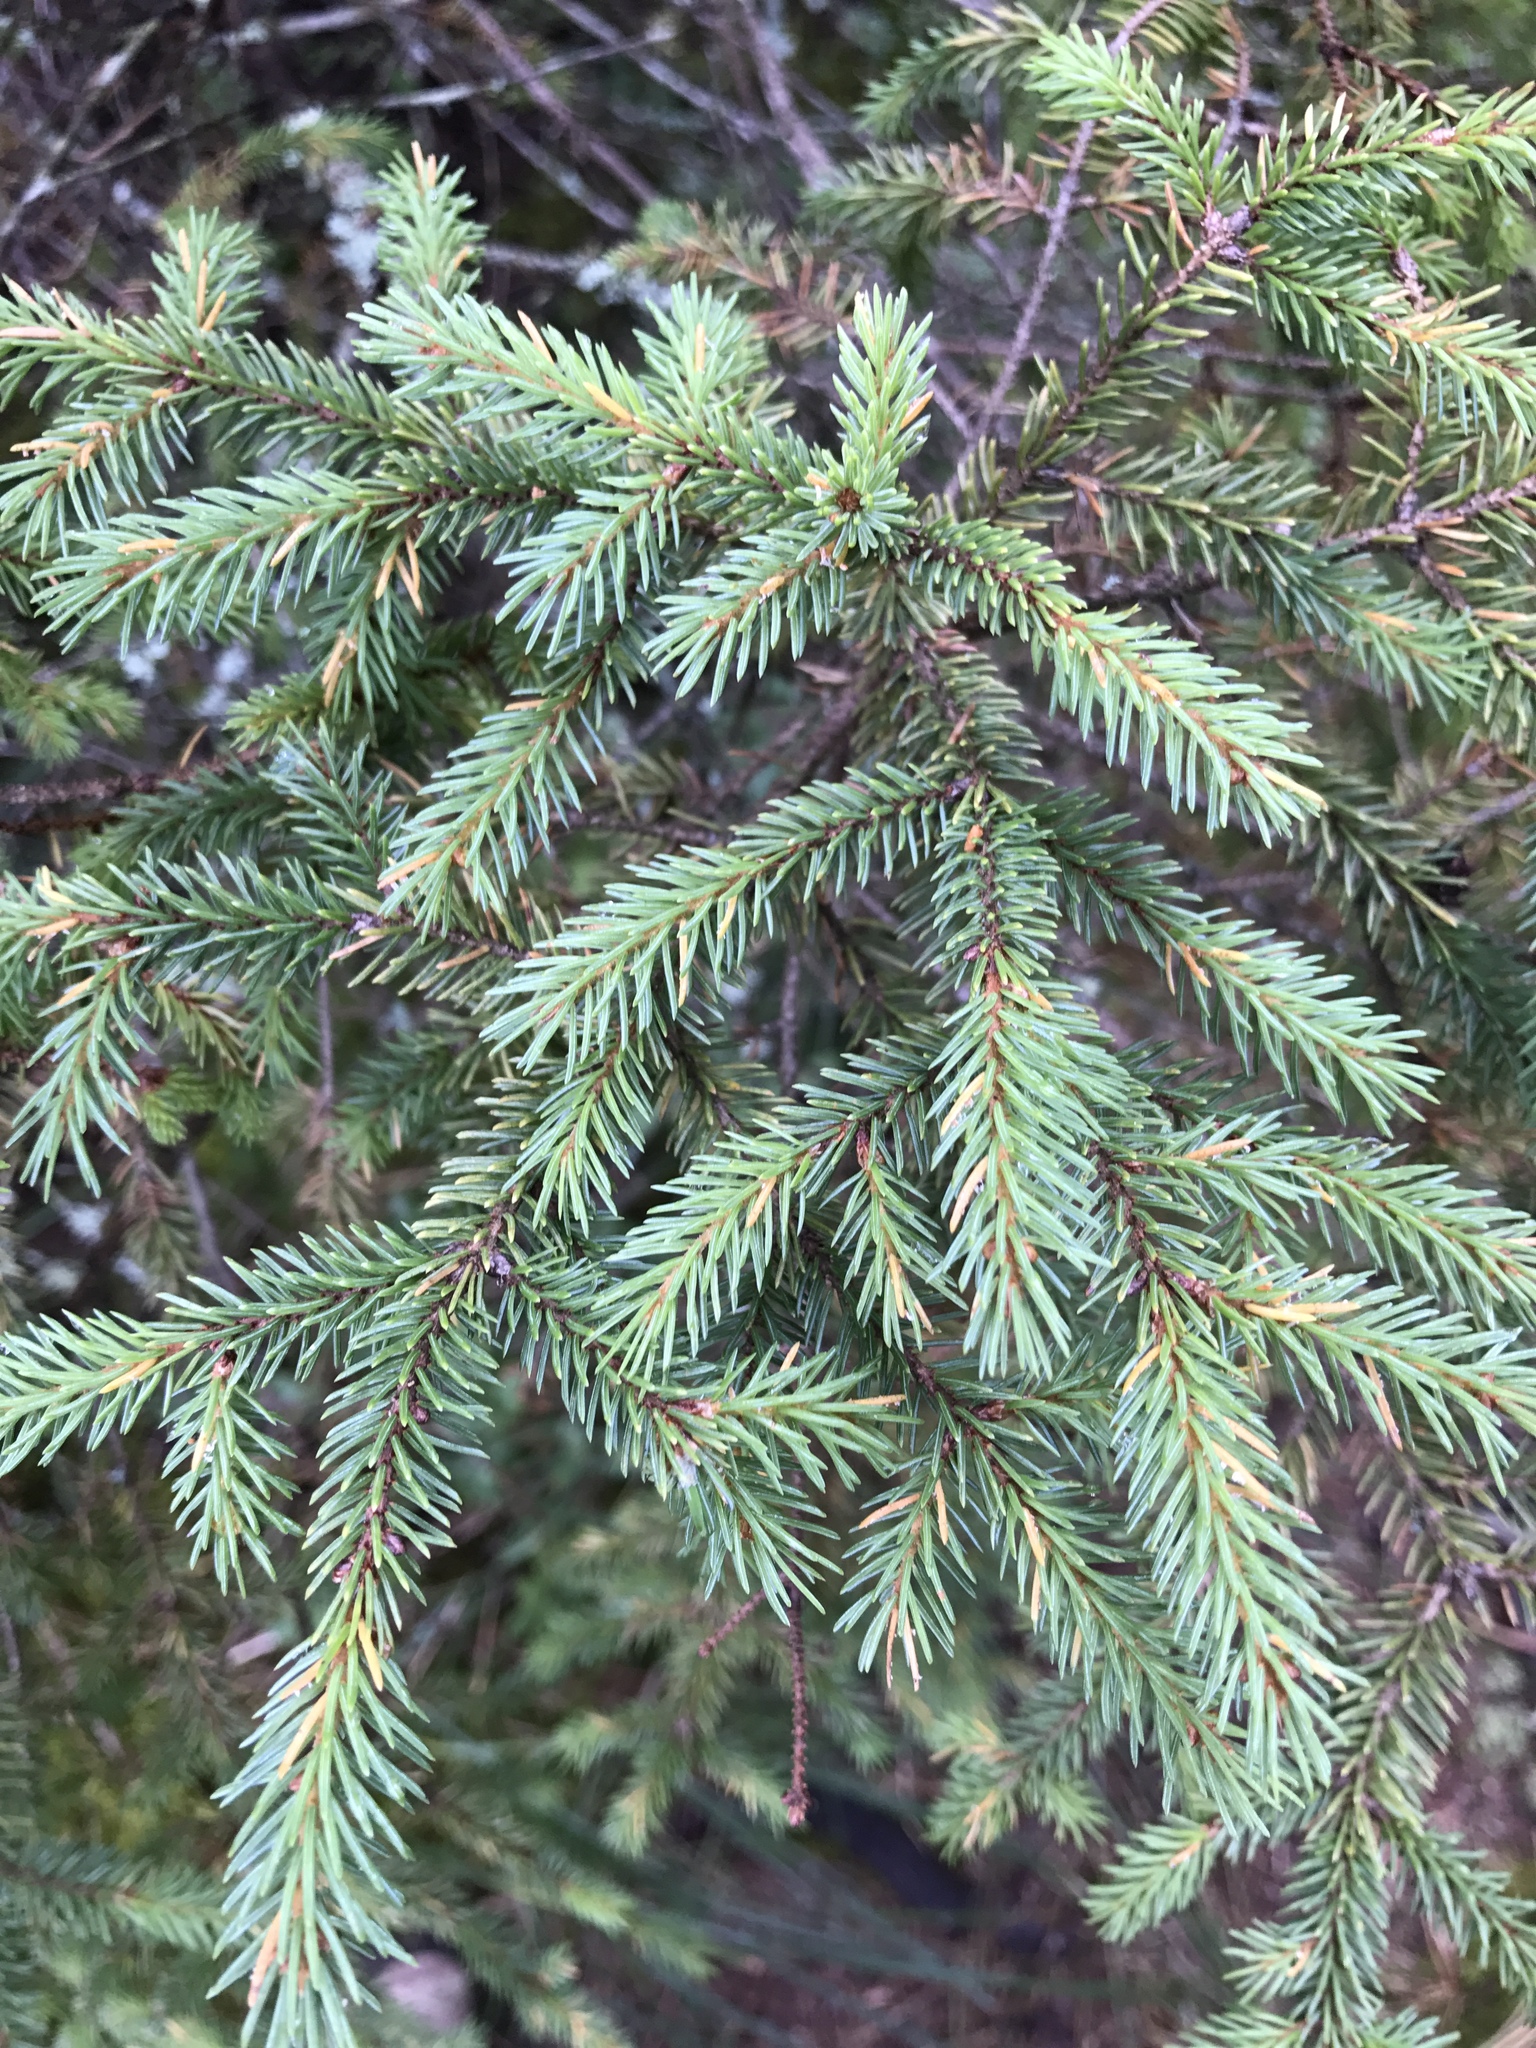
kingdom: Plantae
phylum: Tracheophyta
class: Pinopsida
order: Pinales
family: Pinaceae
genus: Picea
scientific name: Picea mariana
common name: Black spruce
